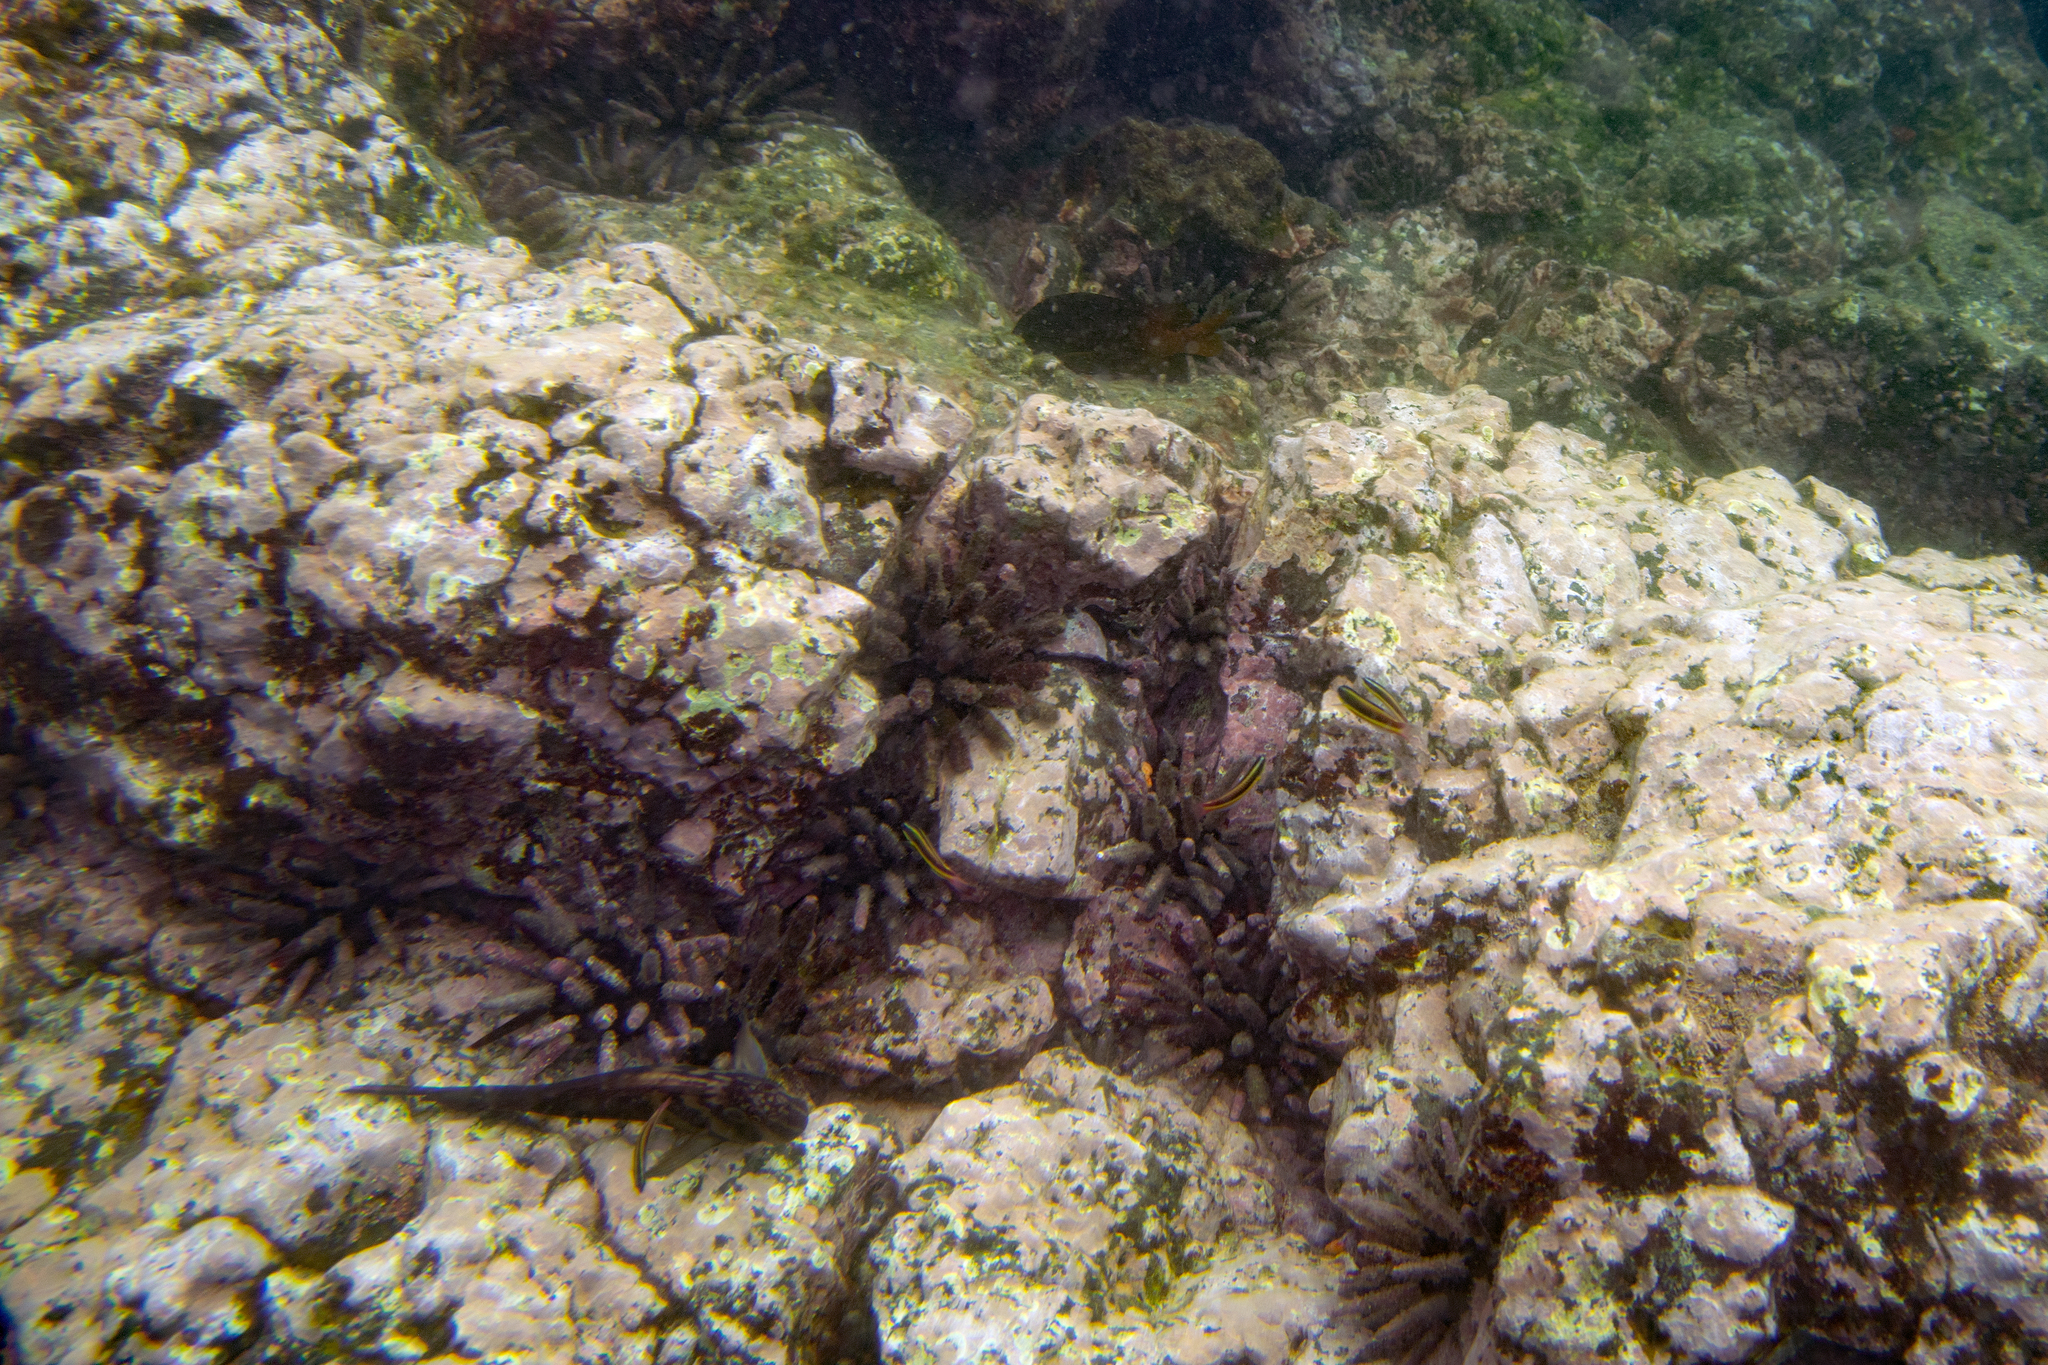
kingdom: Animalia
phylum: Echinodermata
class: Echinoidea
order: Cidaroida
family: Cidaridae
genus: Eucidaris
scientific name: Eucidaris galapagensis
